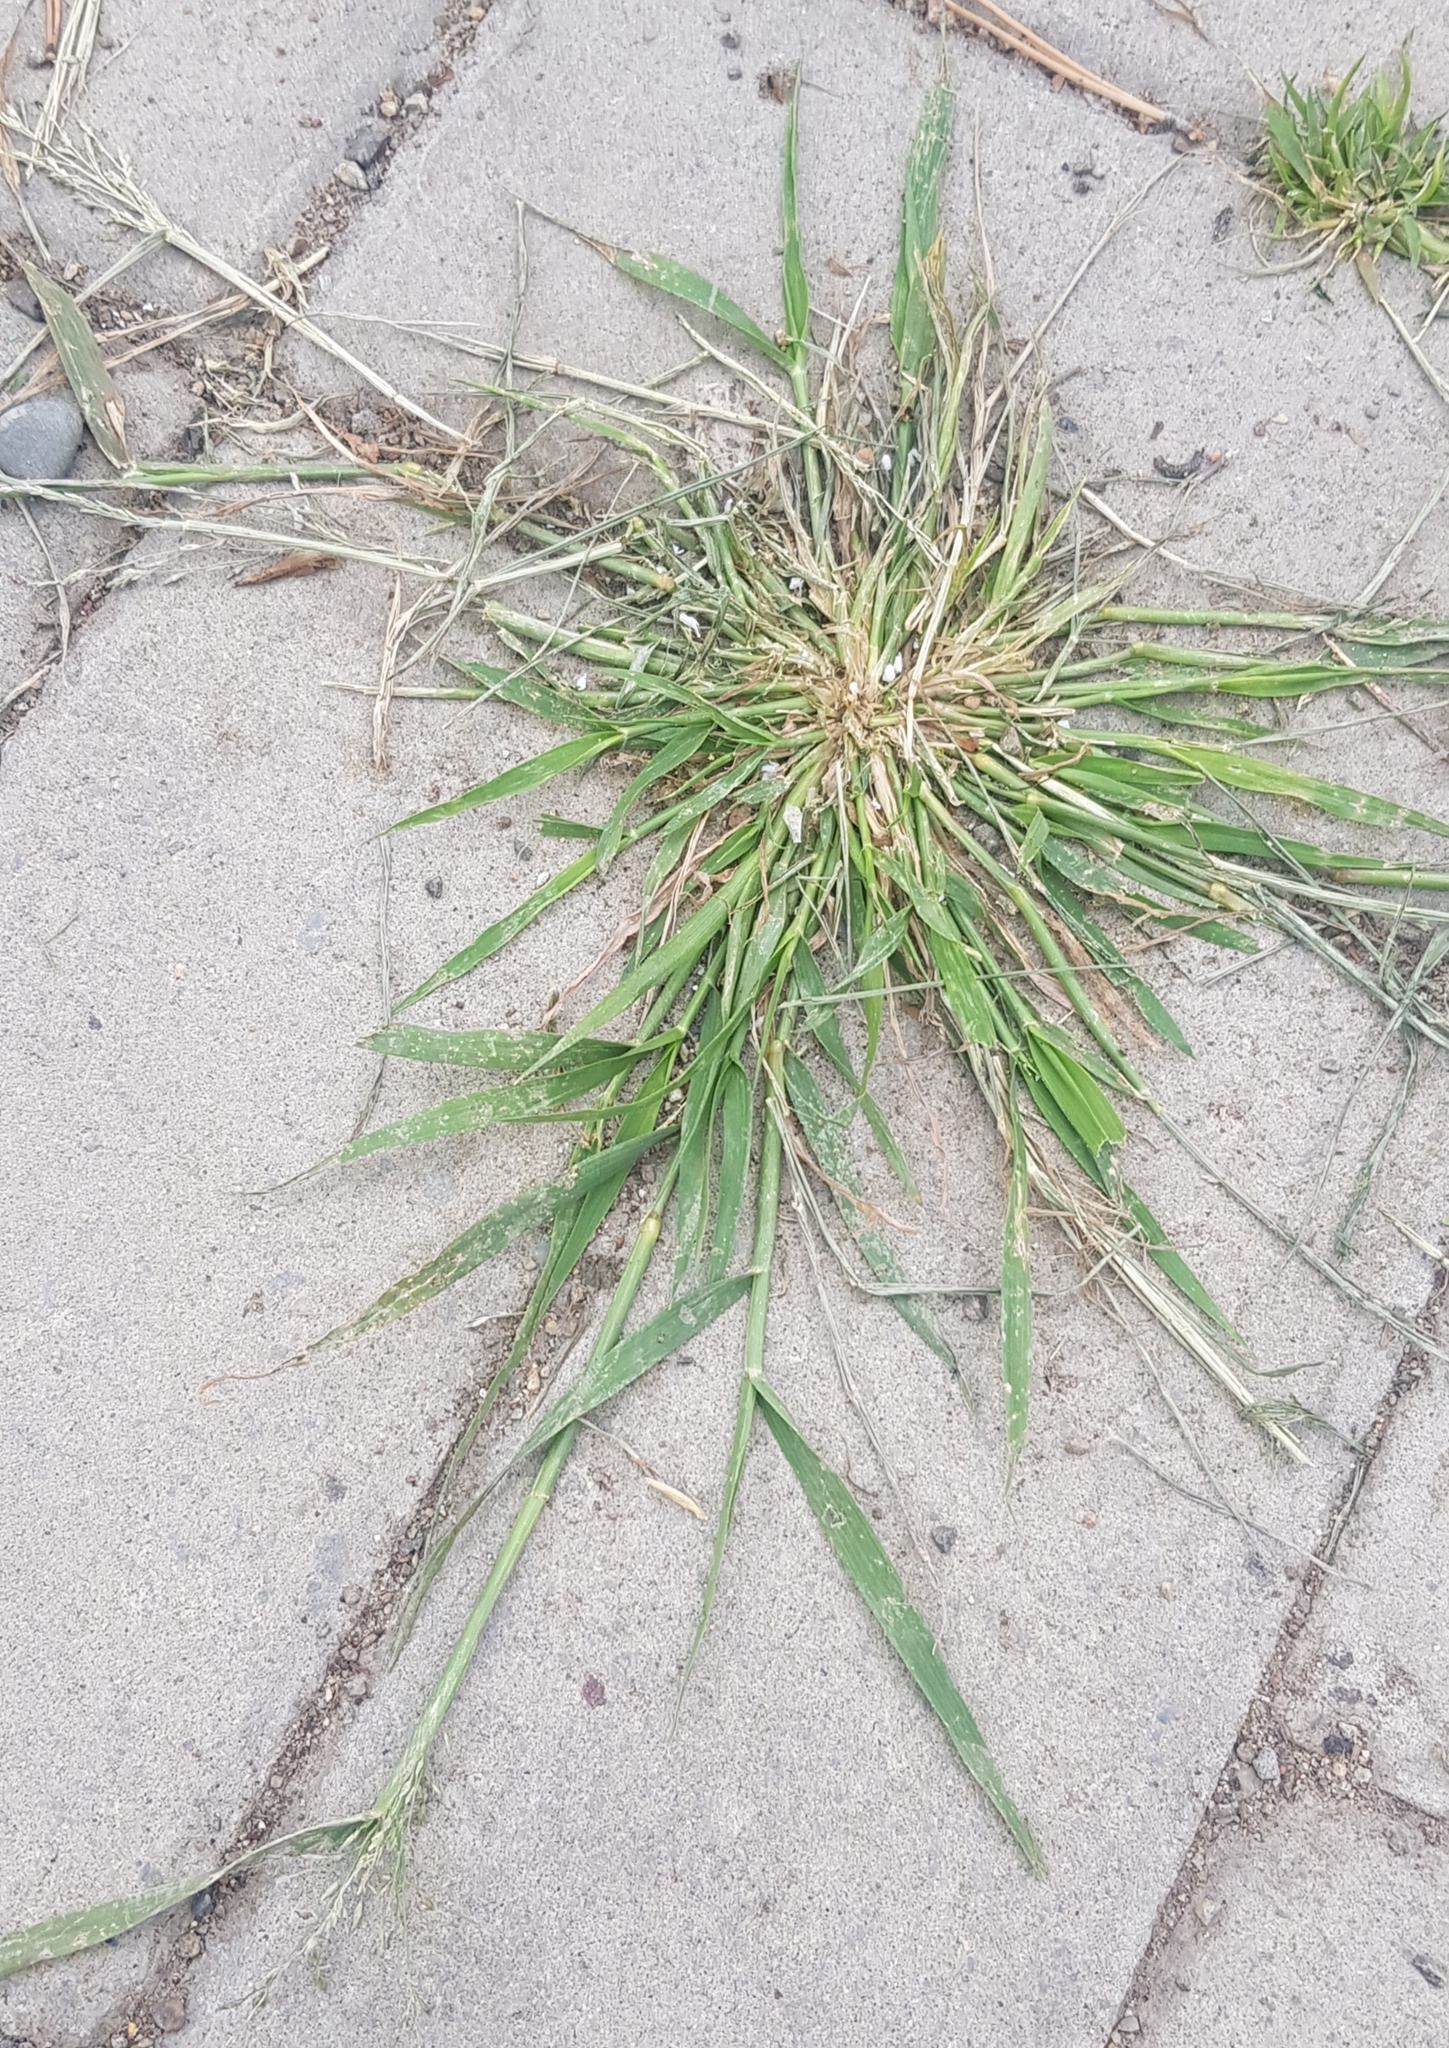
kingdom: Plantae
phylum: Tracheophyta
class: Liliopsida
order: Poales
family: Poaceae
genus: Eragrostis
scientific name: Eragrostis minor
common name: Small love-grass
